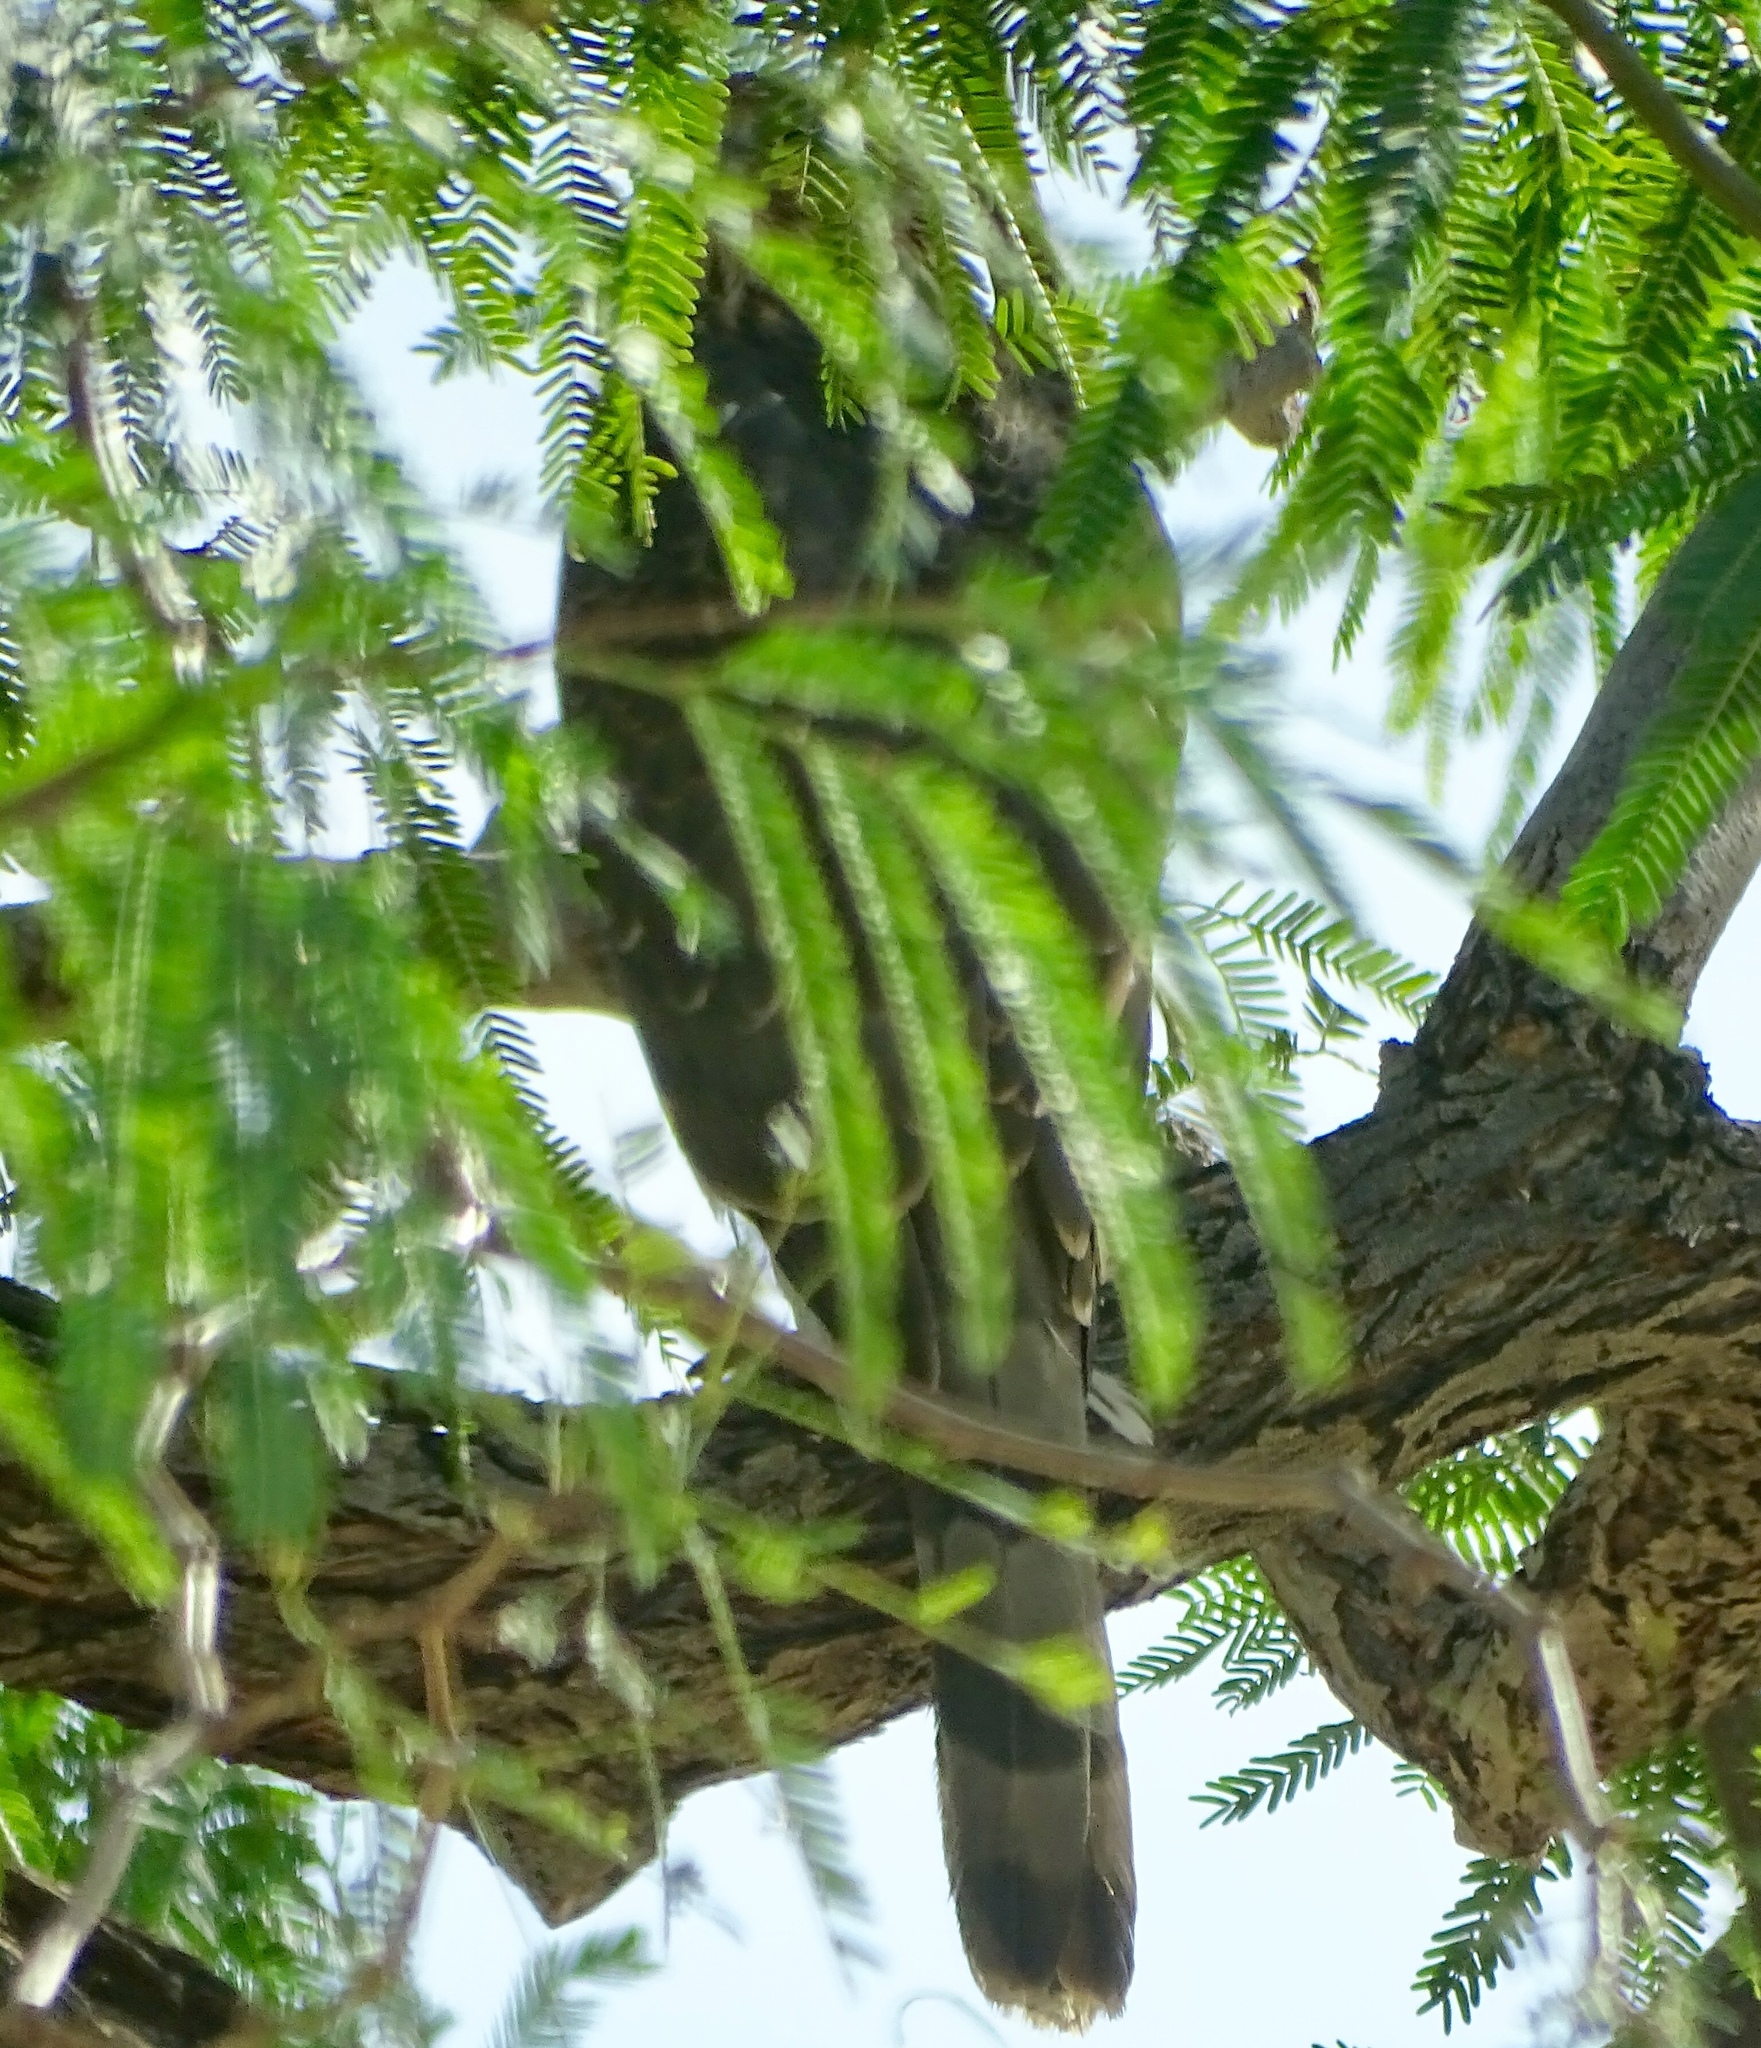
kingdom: Animalia
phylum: Chordata
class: Aves
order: Accipitriformes
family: Accipitridae
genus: Accipiter
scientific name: Accipiter cooperii
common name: Cooper's hawk
